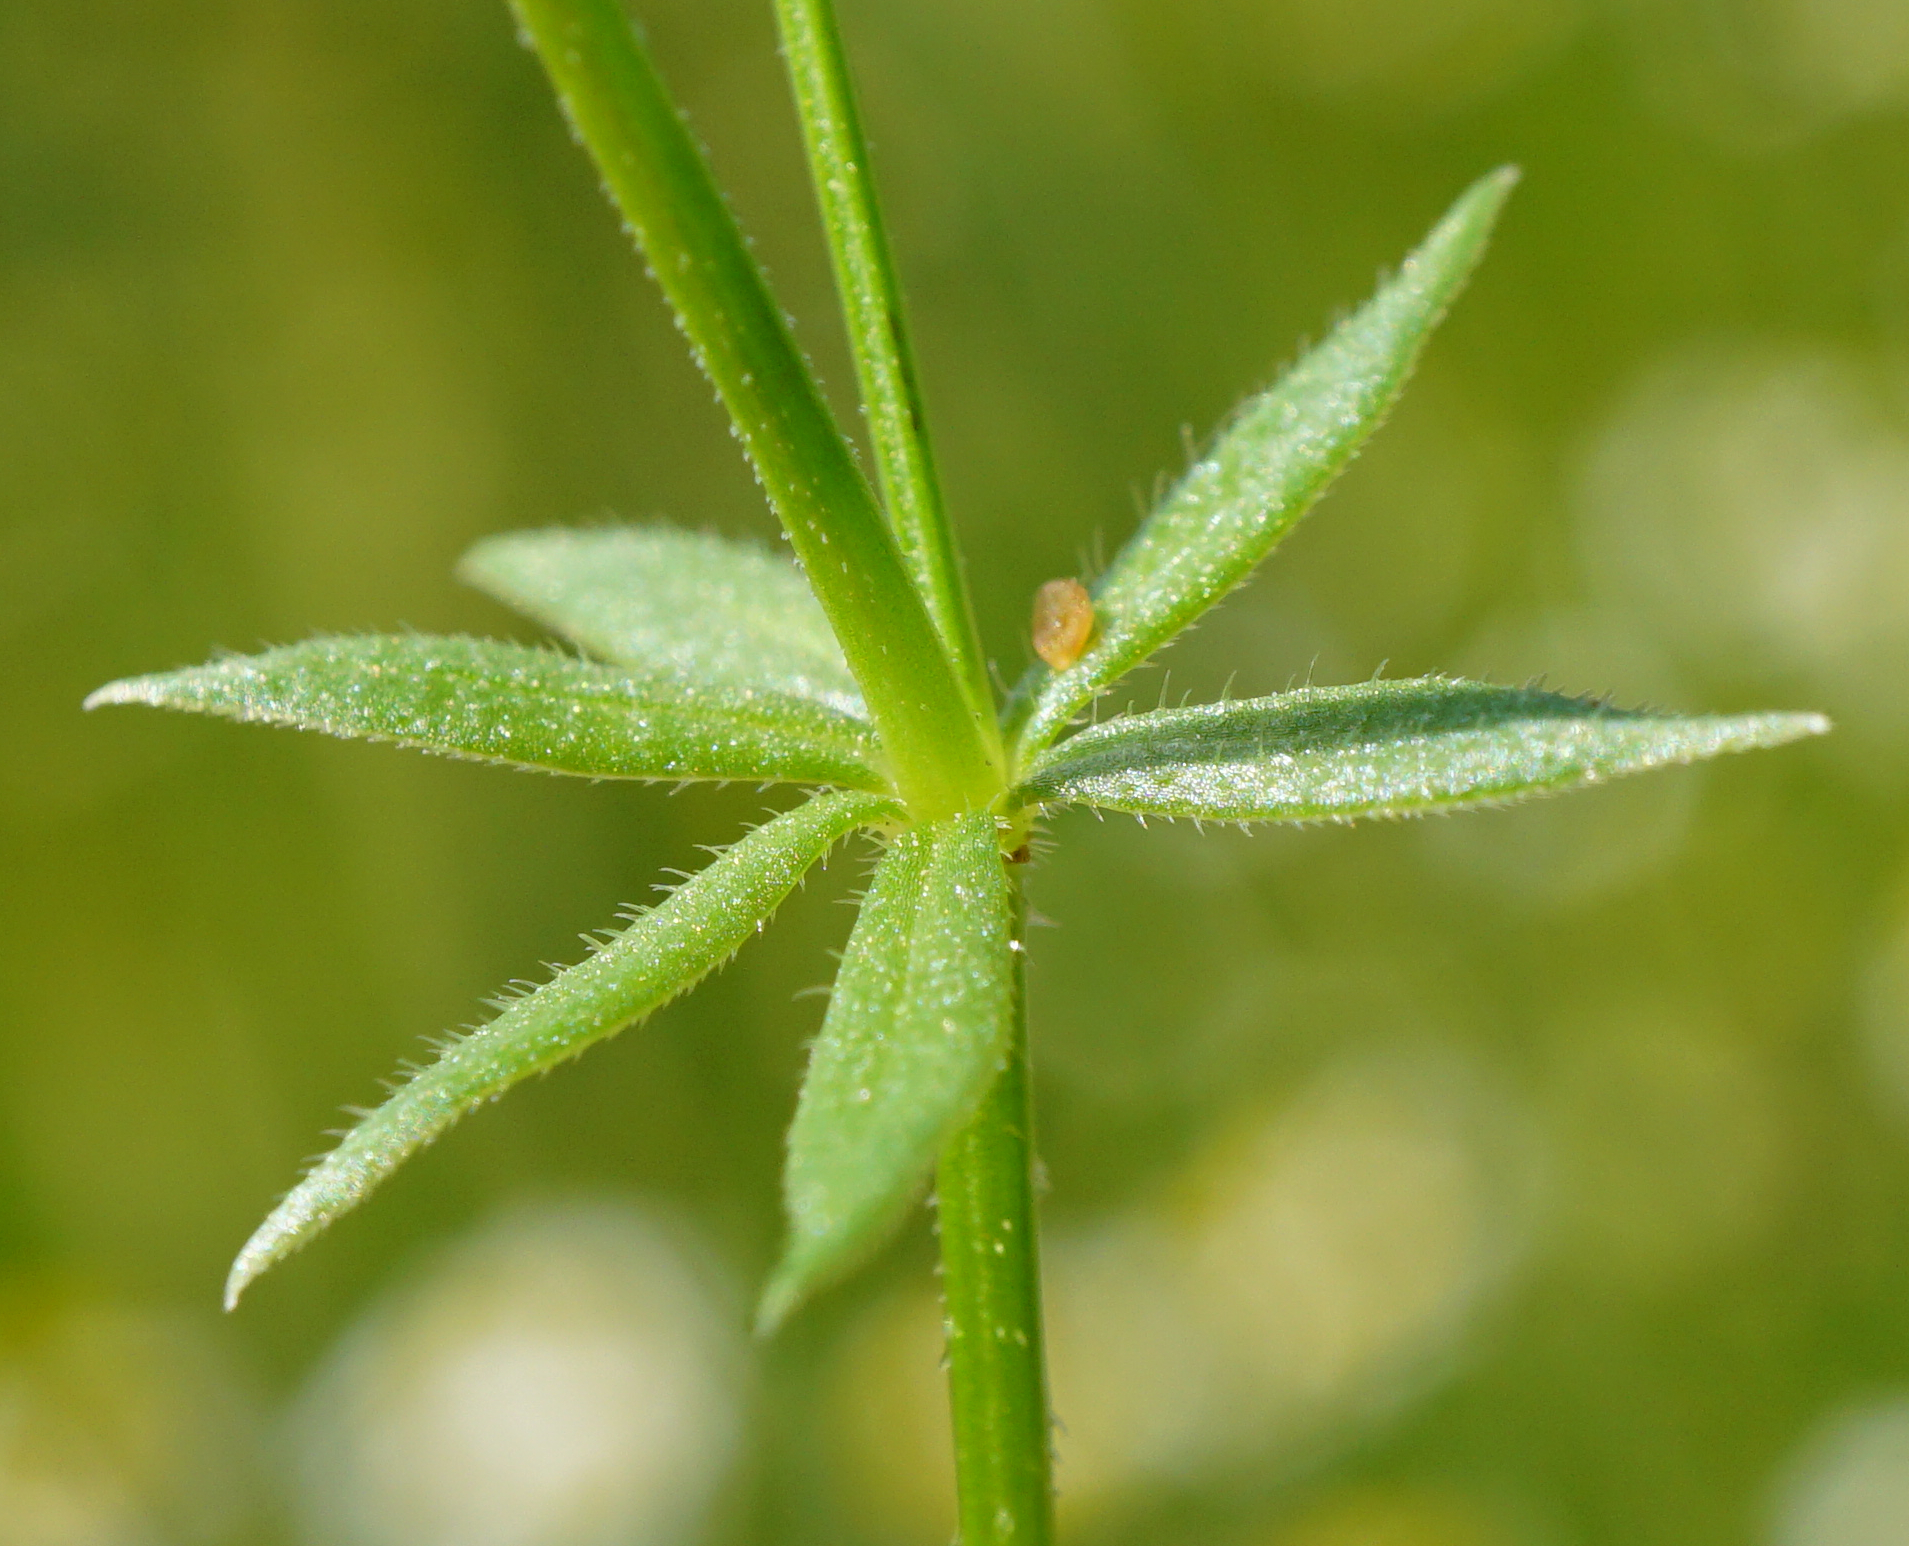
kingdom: Plantae
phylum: Tracheophyta
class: Magnoliopsida
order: Gentianales
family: Rubiaceae
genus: Sherardia
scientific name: Sherardia arvensis
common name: Field madder
